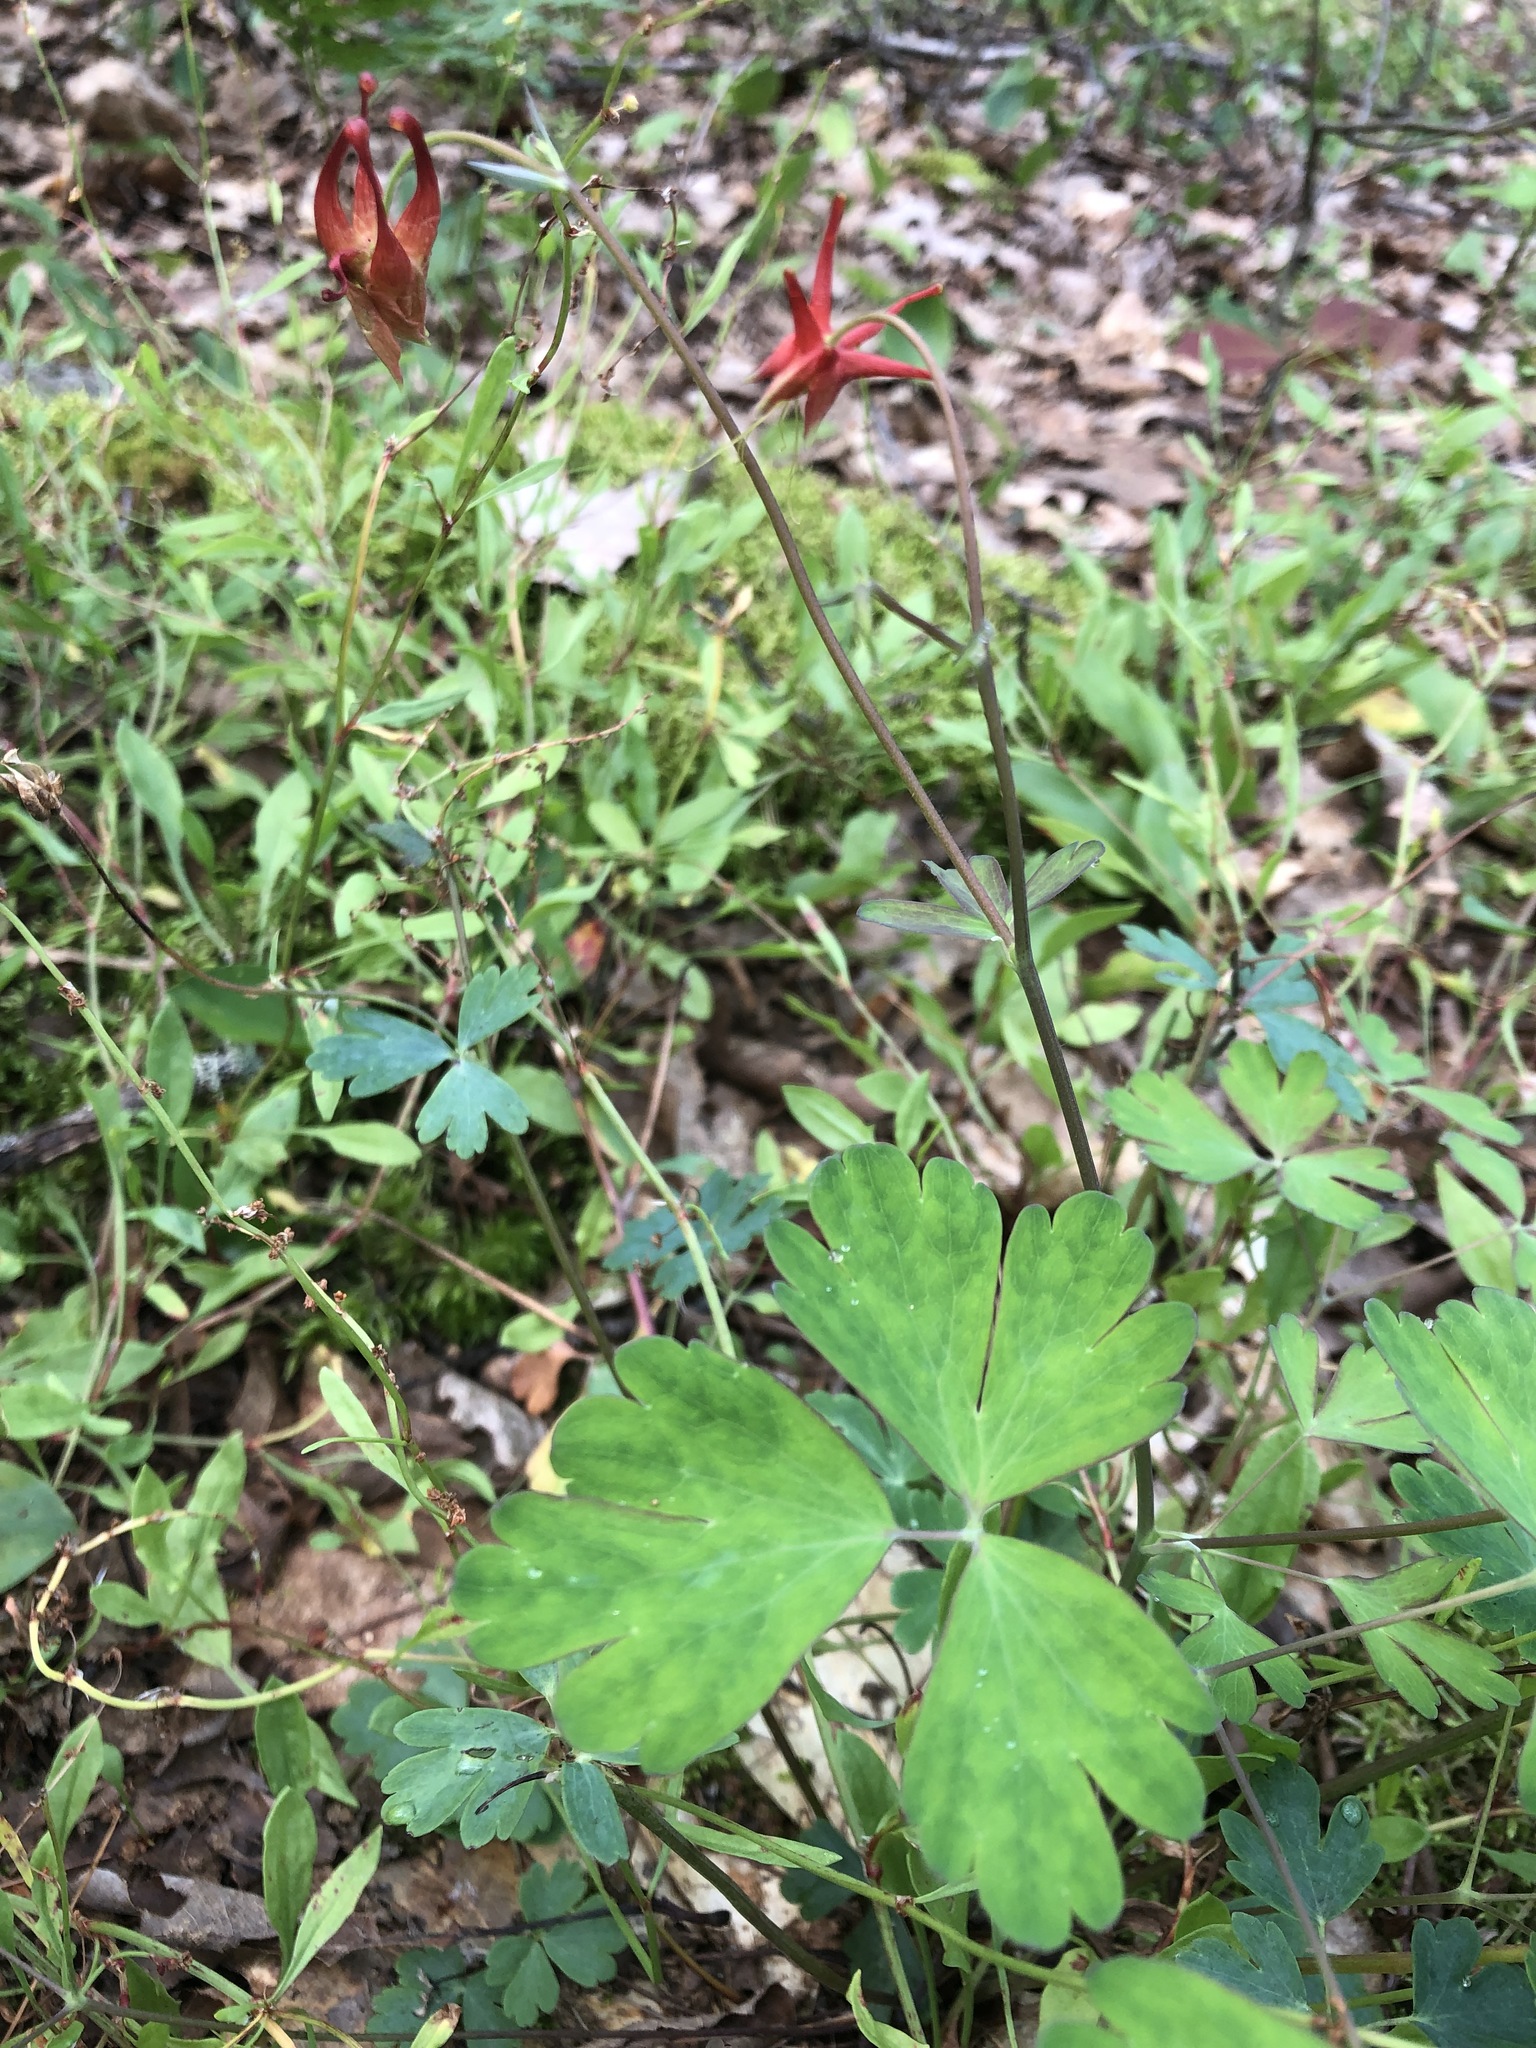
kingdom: Plantae
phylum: Tracheophyta
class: Magnoliopsida
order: Ranunculales
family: Ranunculaceae
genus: Aquilegia
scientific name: Aquilegia canadensis
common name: American columbine
